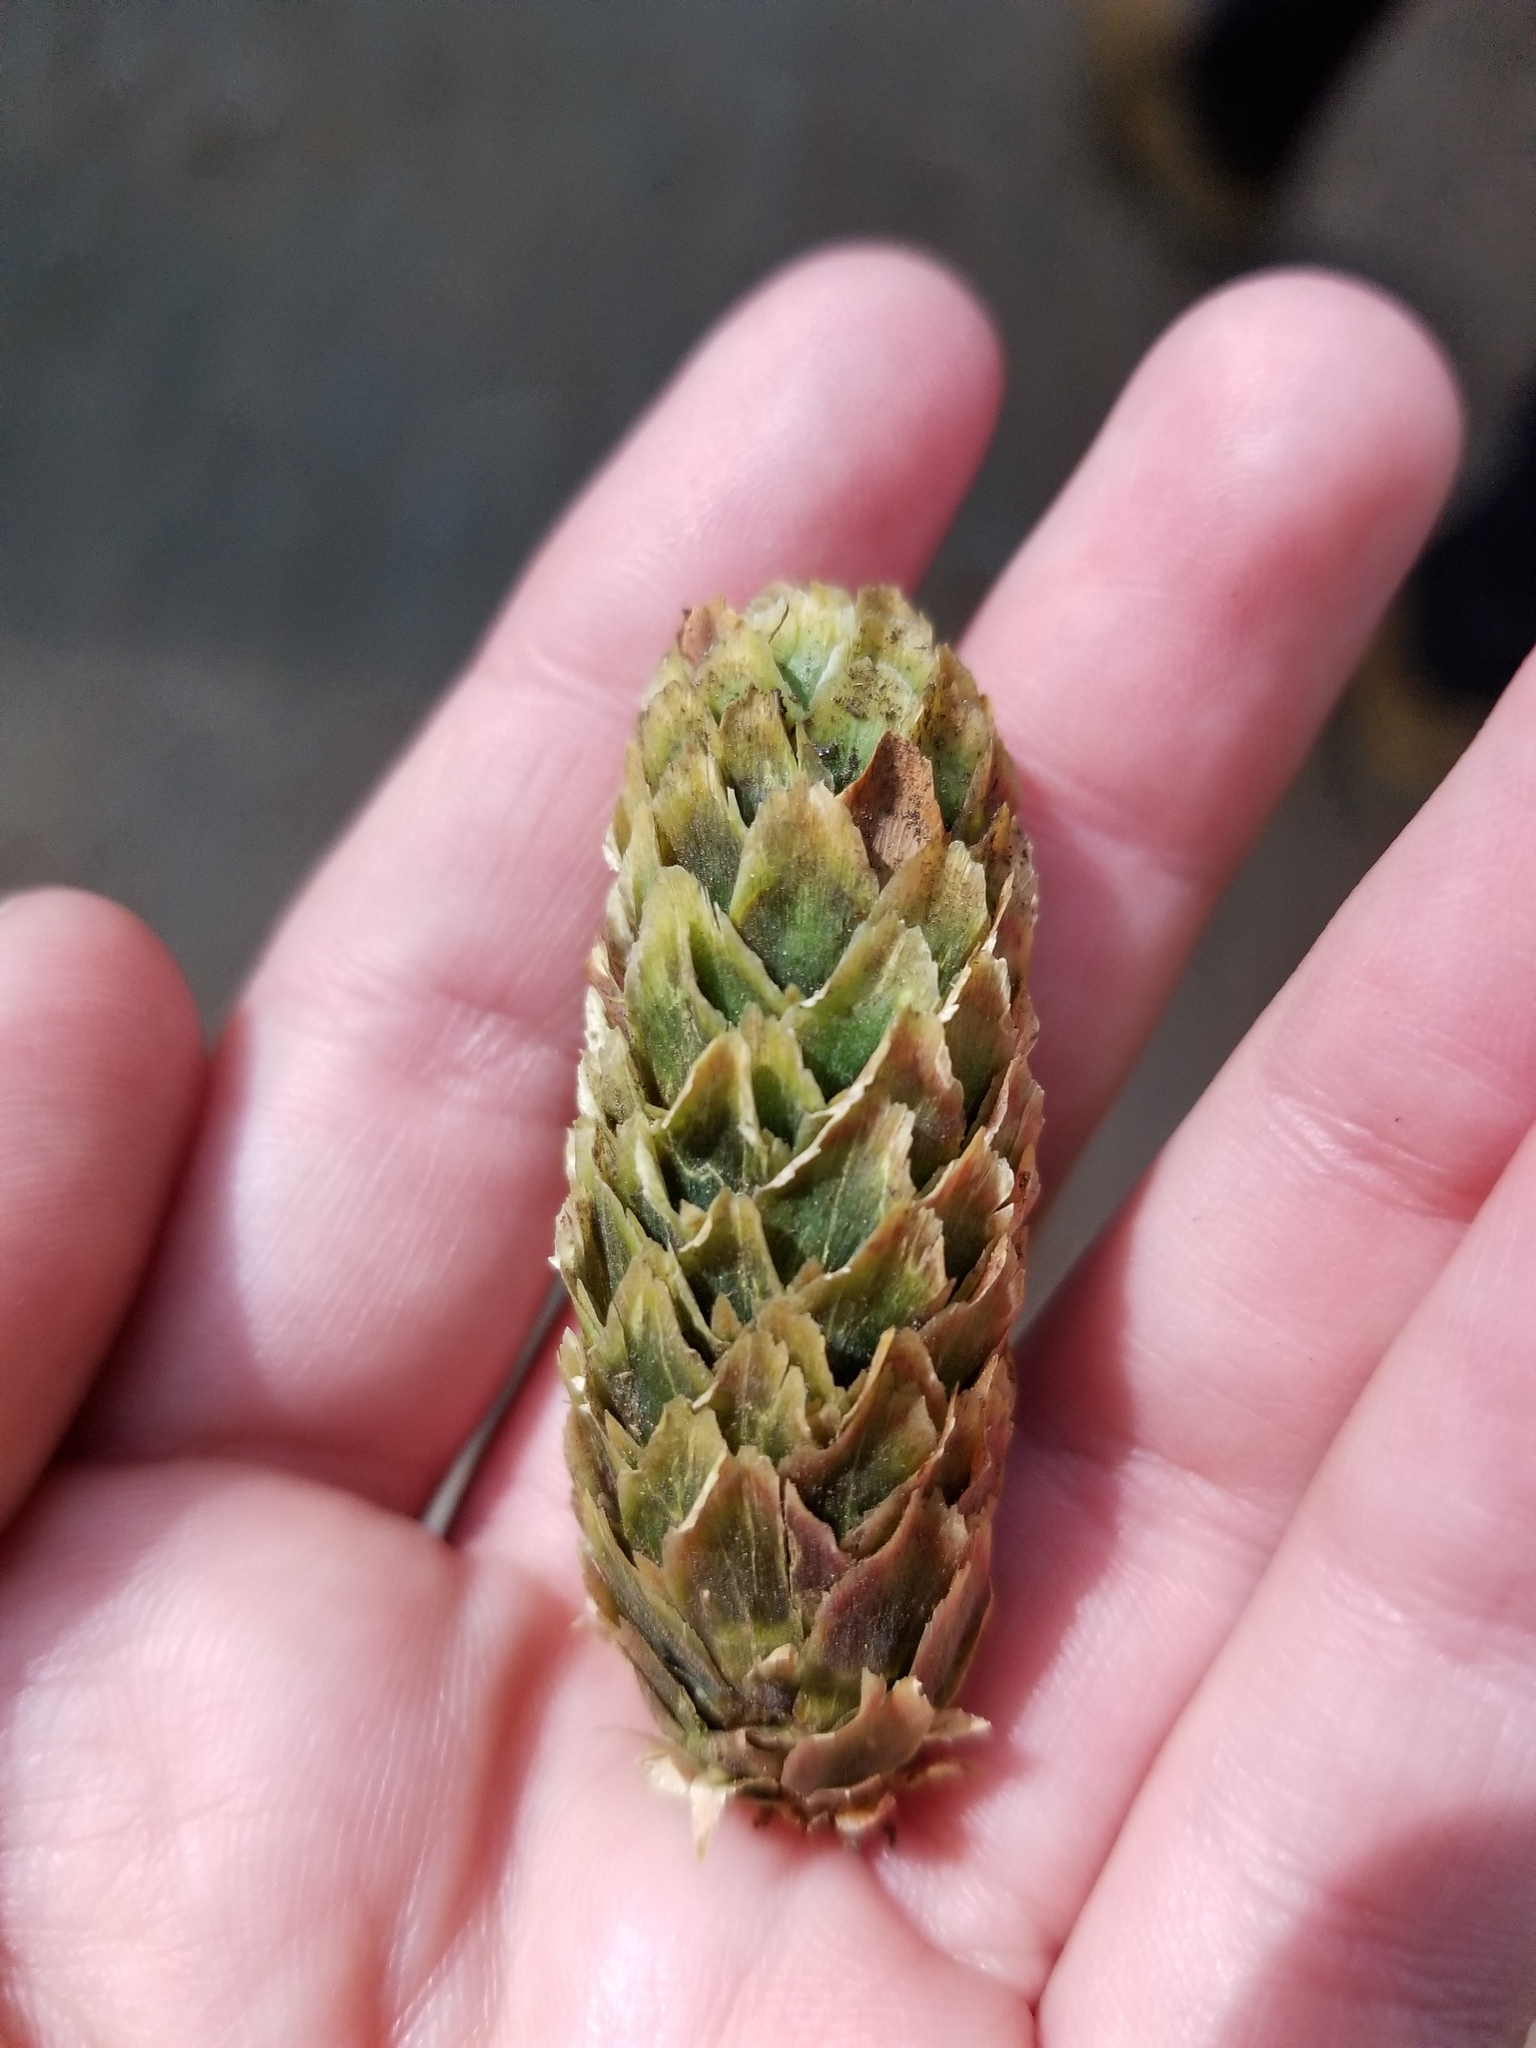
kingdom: Plantae
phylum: Tracheophyta
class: Pinopsida
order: Pinales
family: Pinaceae
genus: Picea
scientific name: Picea sitchensis
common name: Sitka spruce
